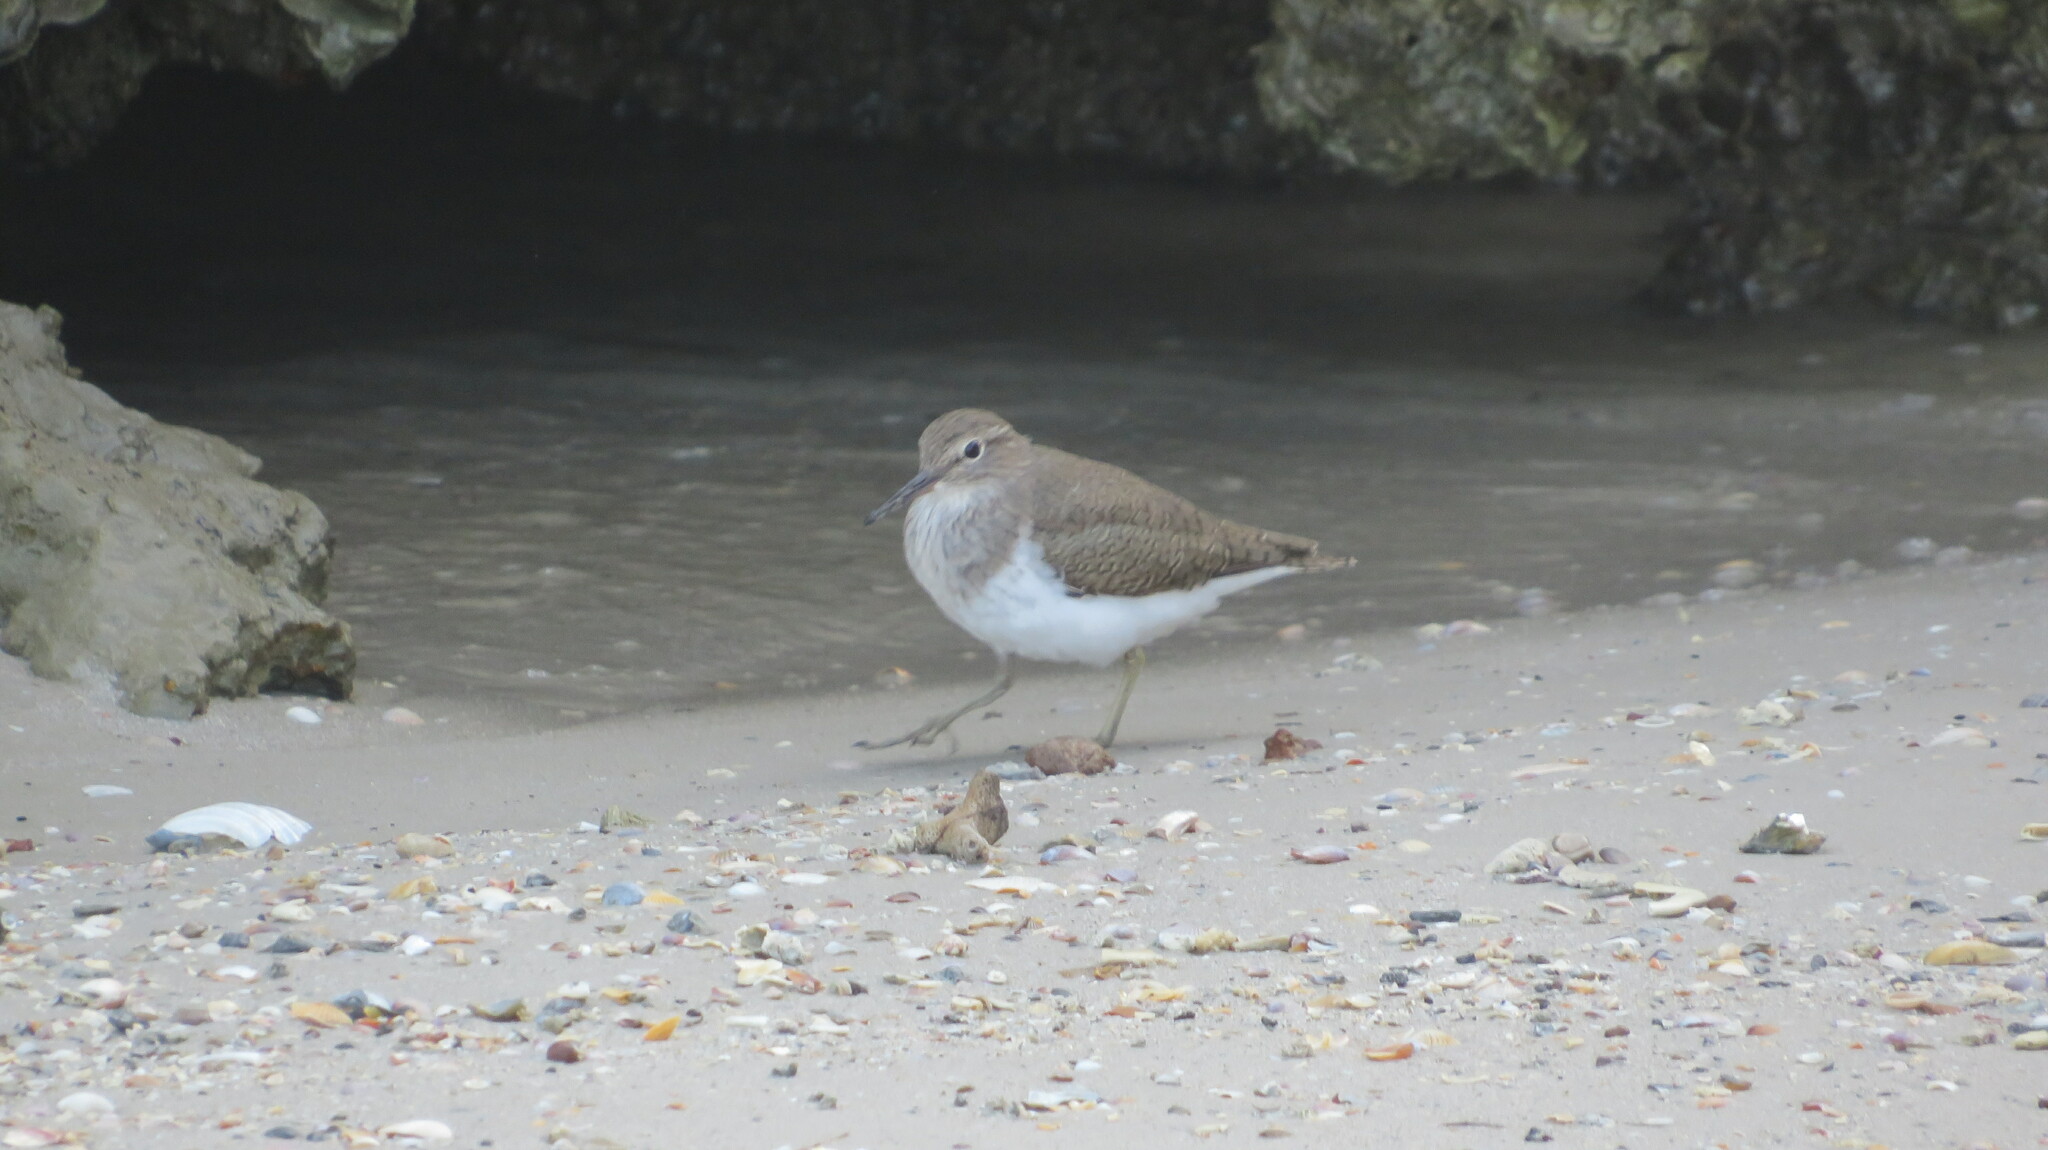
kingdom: Animalia
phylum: Chordata
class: Aves
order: Charadriiformes
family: Scolopacidae
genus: Actitis
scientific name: Actitis hypoleucos
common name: Common sandpiper
